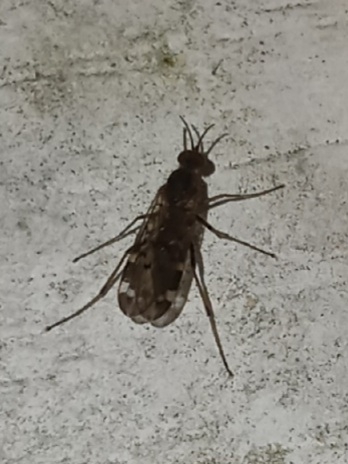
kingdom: Animalia
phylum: Arthropoda
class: Insecta
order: Diptera
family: Anisopodidae
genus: Sylvicola
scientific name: Sylvicola alternata
